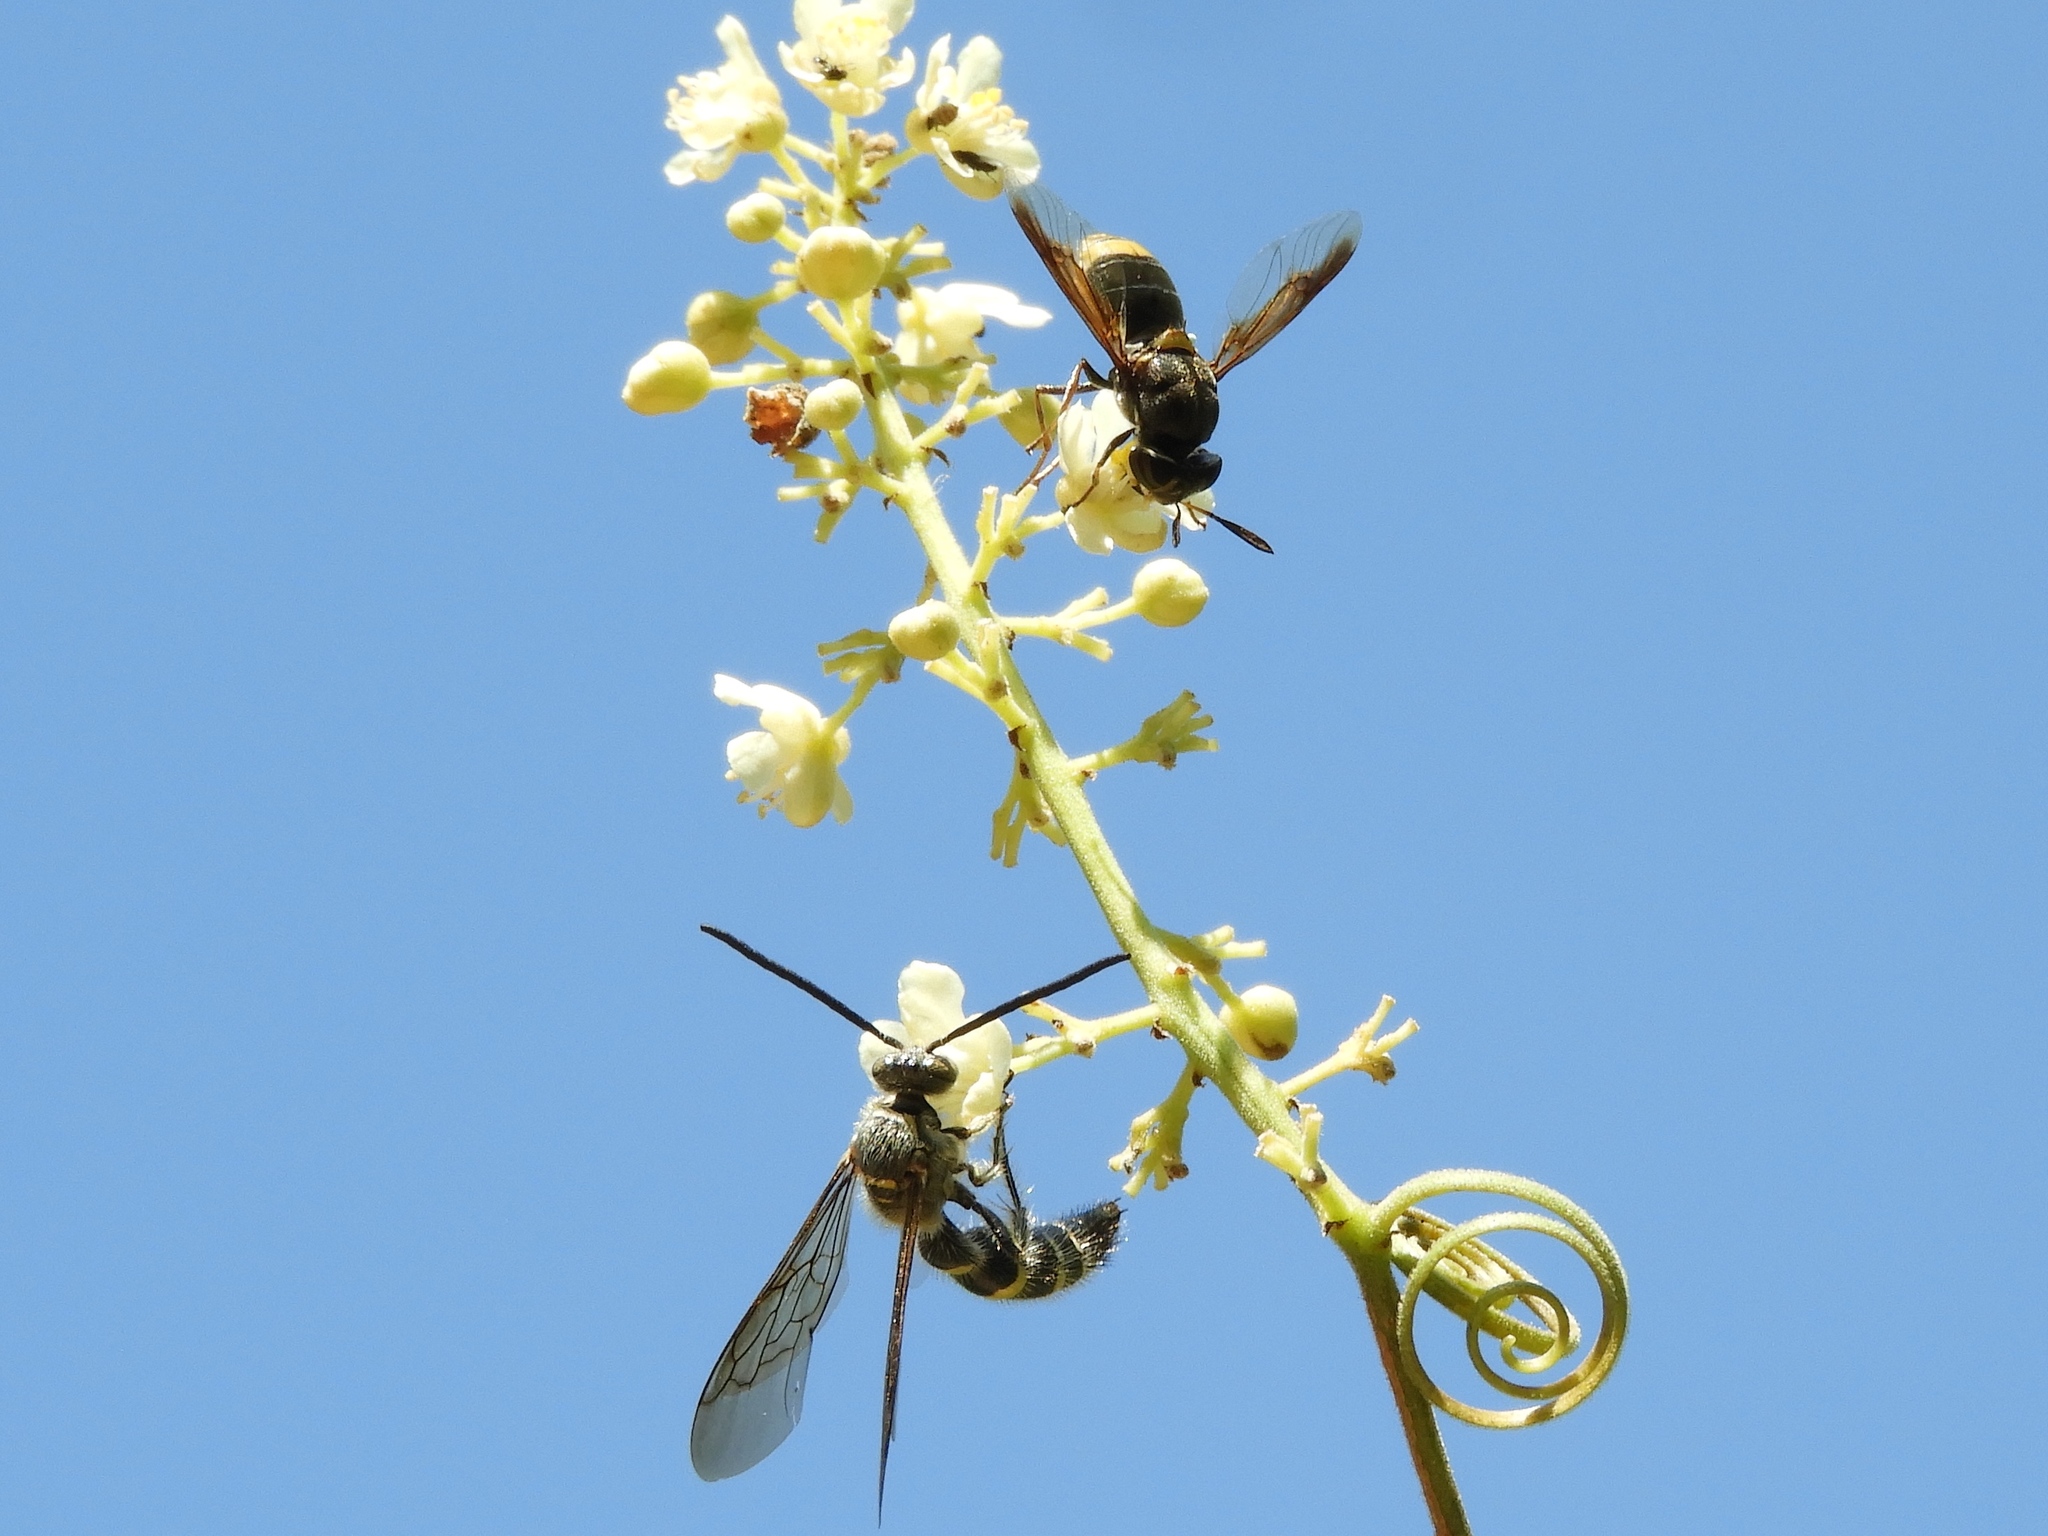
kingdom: Animalia
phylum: Arthropoda
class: Insecta
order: Diptera
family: Stratiomyidae
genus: Hoplitimyia
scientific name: Hoplitimyia mutabilis
